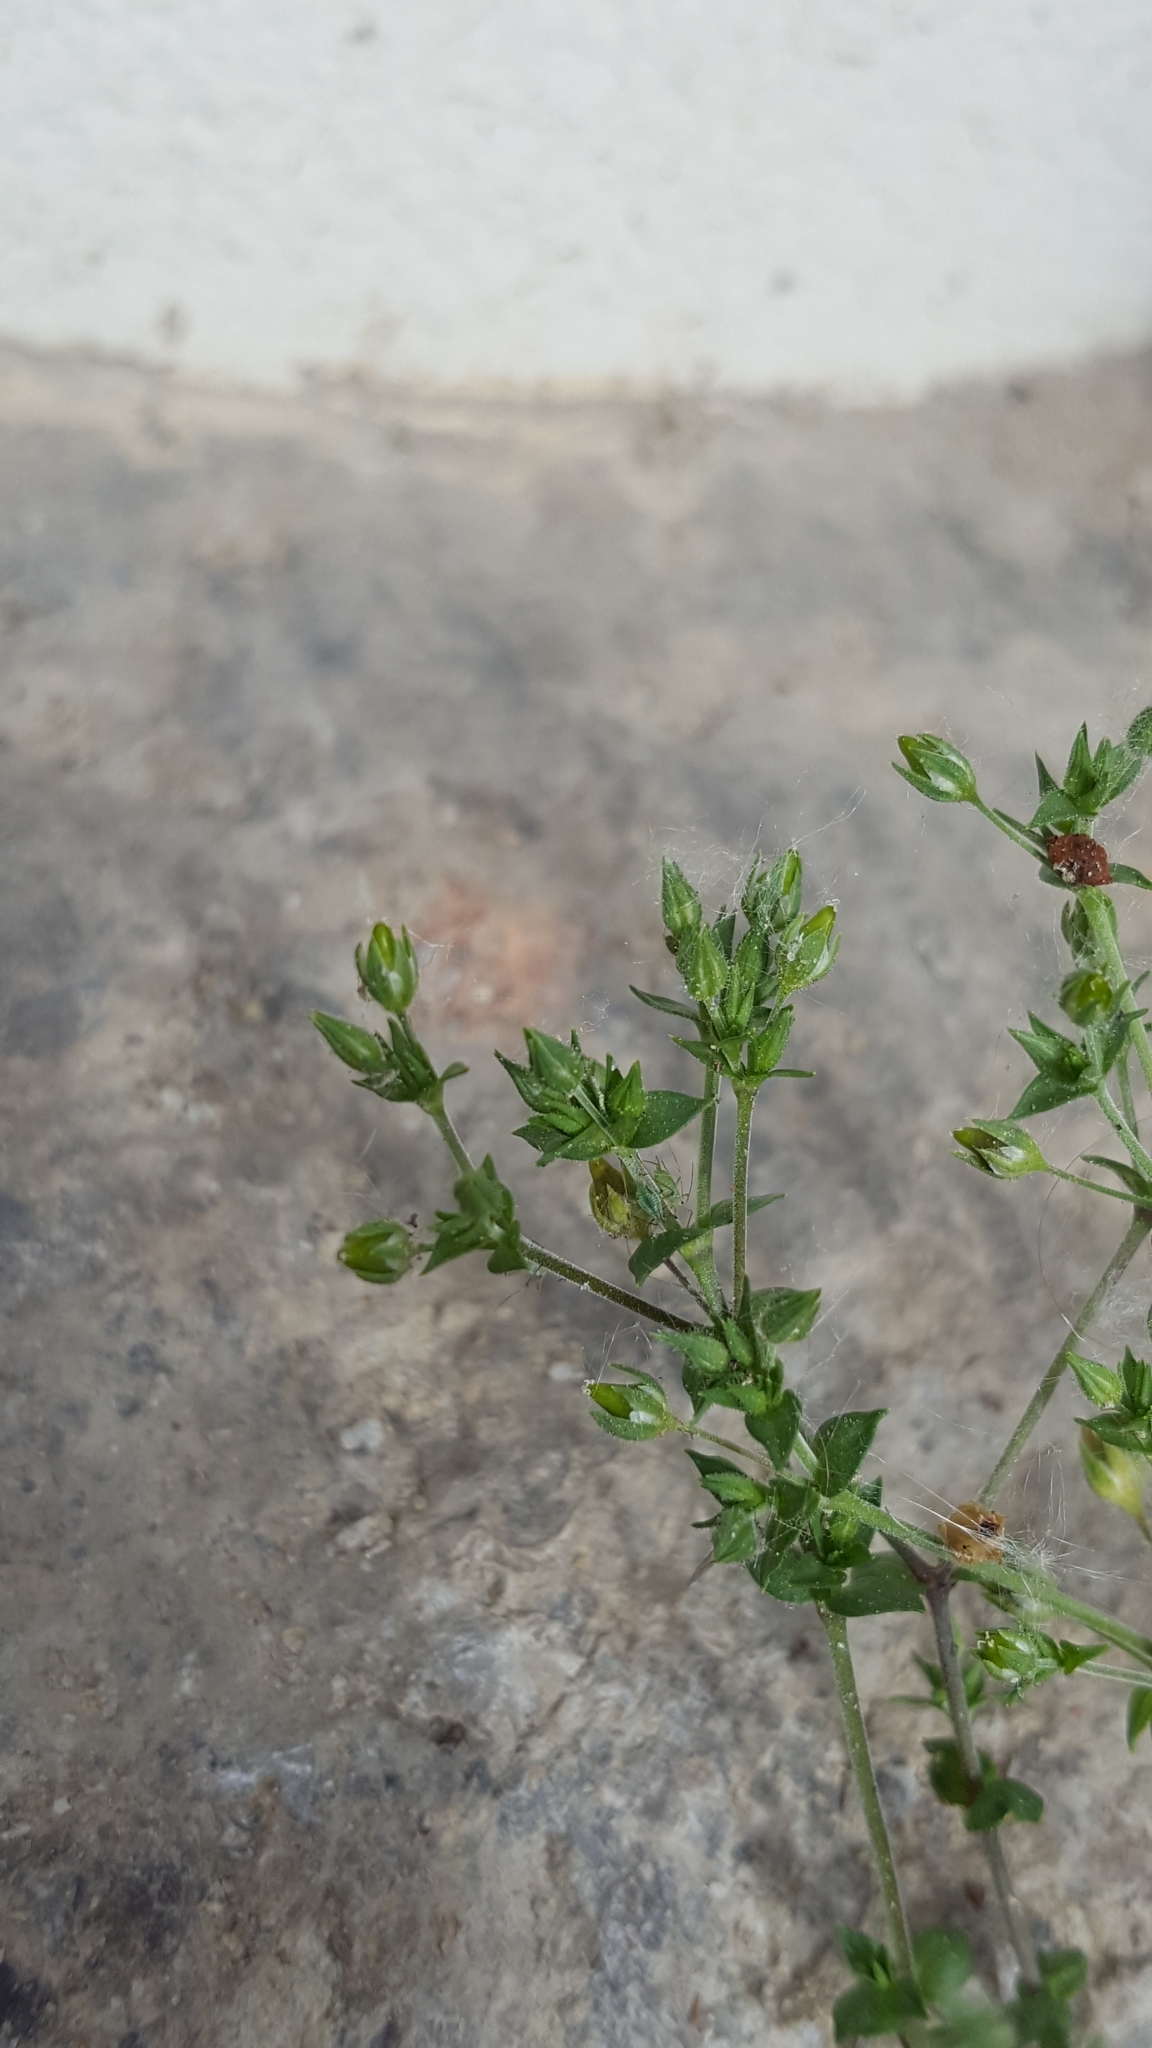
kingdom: Plantae
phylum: Tracheophyta
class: Magnoliopsida
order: Caryophyllales
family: Caryophyllaceae
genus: Arenaria
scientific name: Arenaria serpyllifolia
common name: Thyme-leaved sandwort
